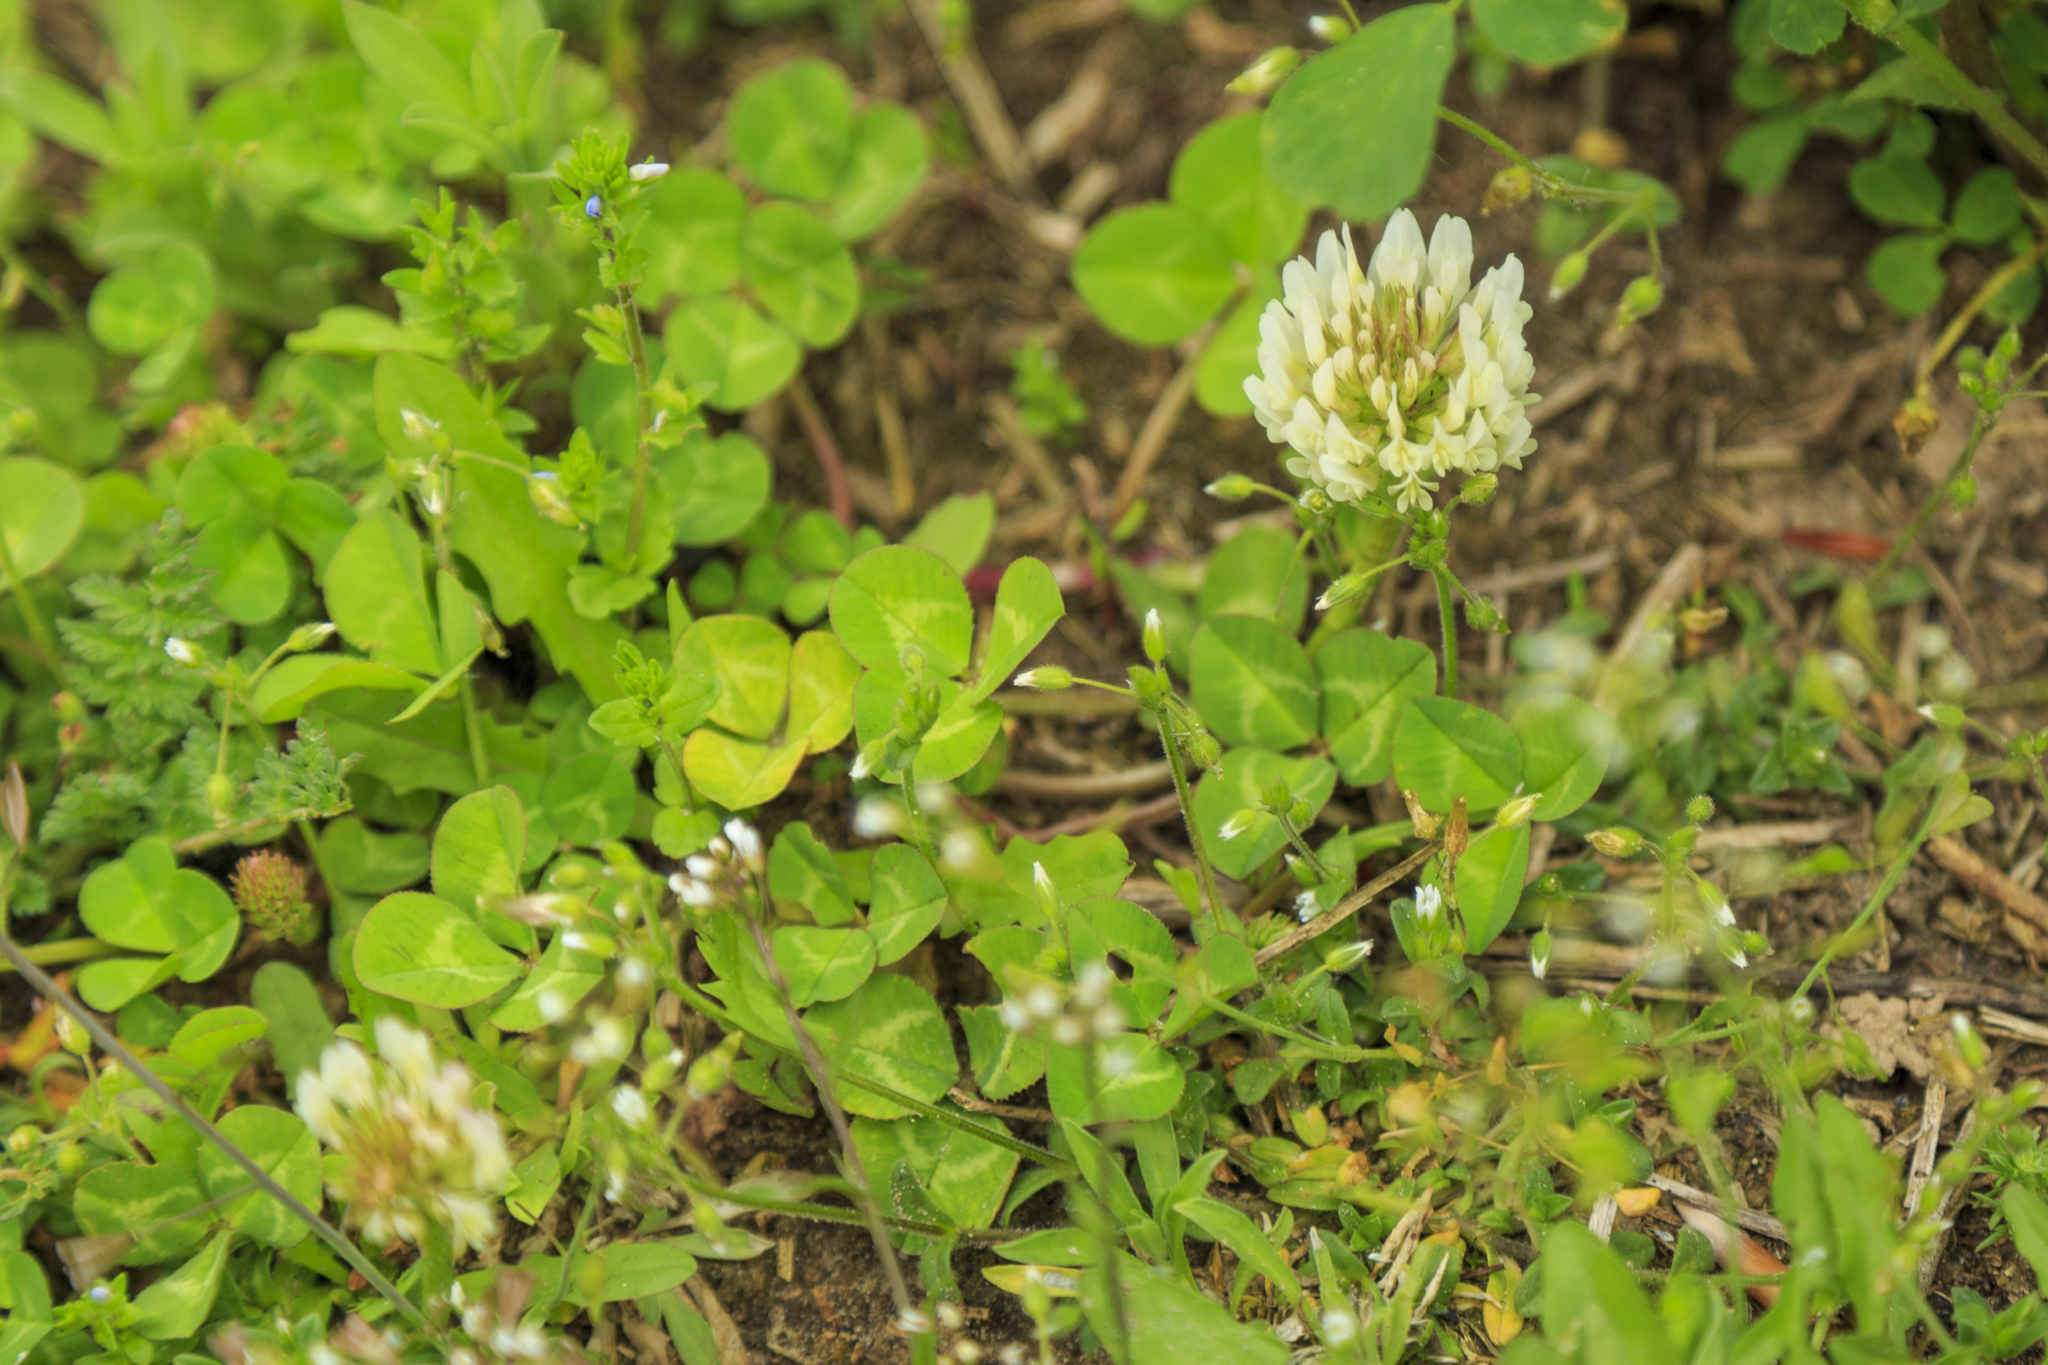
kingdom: Plantae
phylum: Tracheophyta
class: Magnoliopsida
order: Fabales
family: Fabaceae
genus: Trifolium
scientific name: Trifolium repens
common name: White clover
